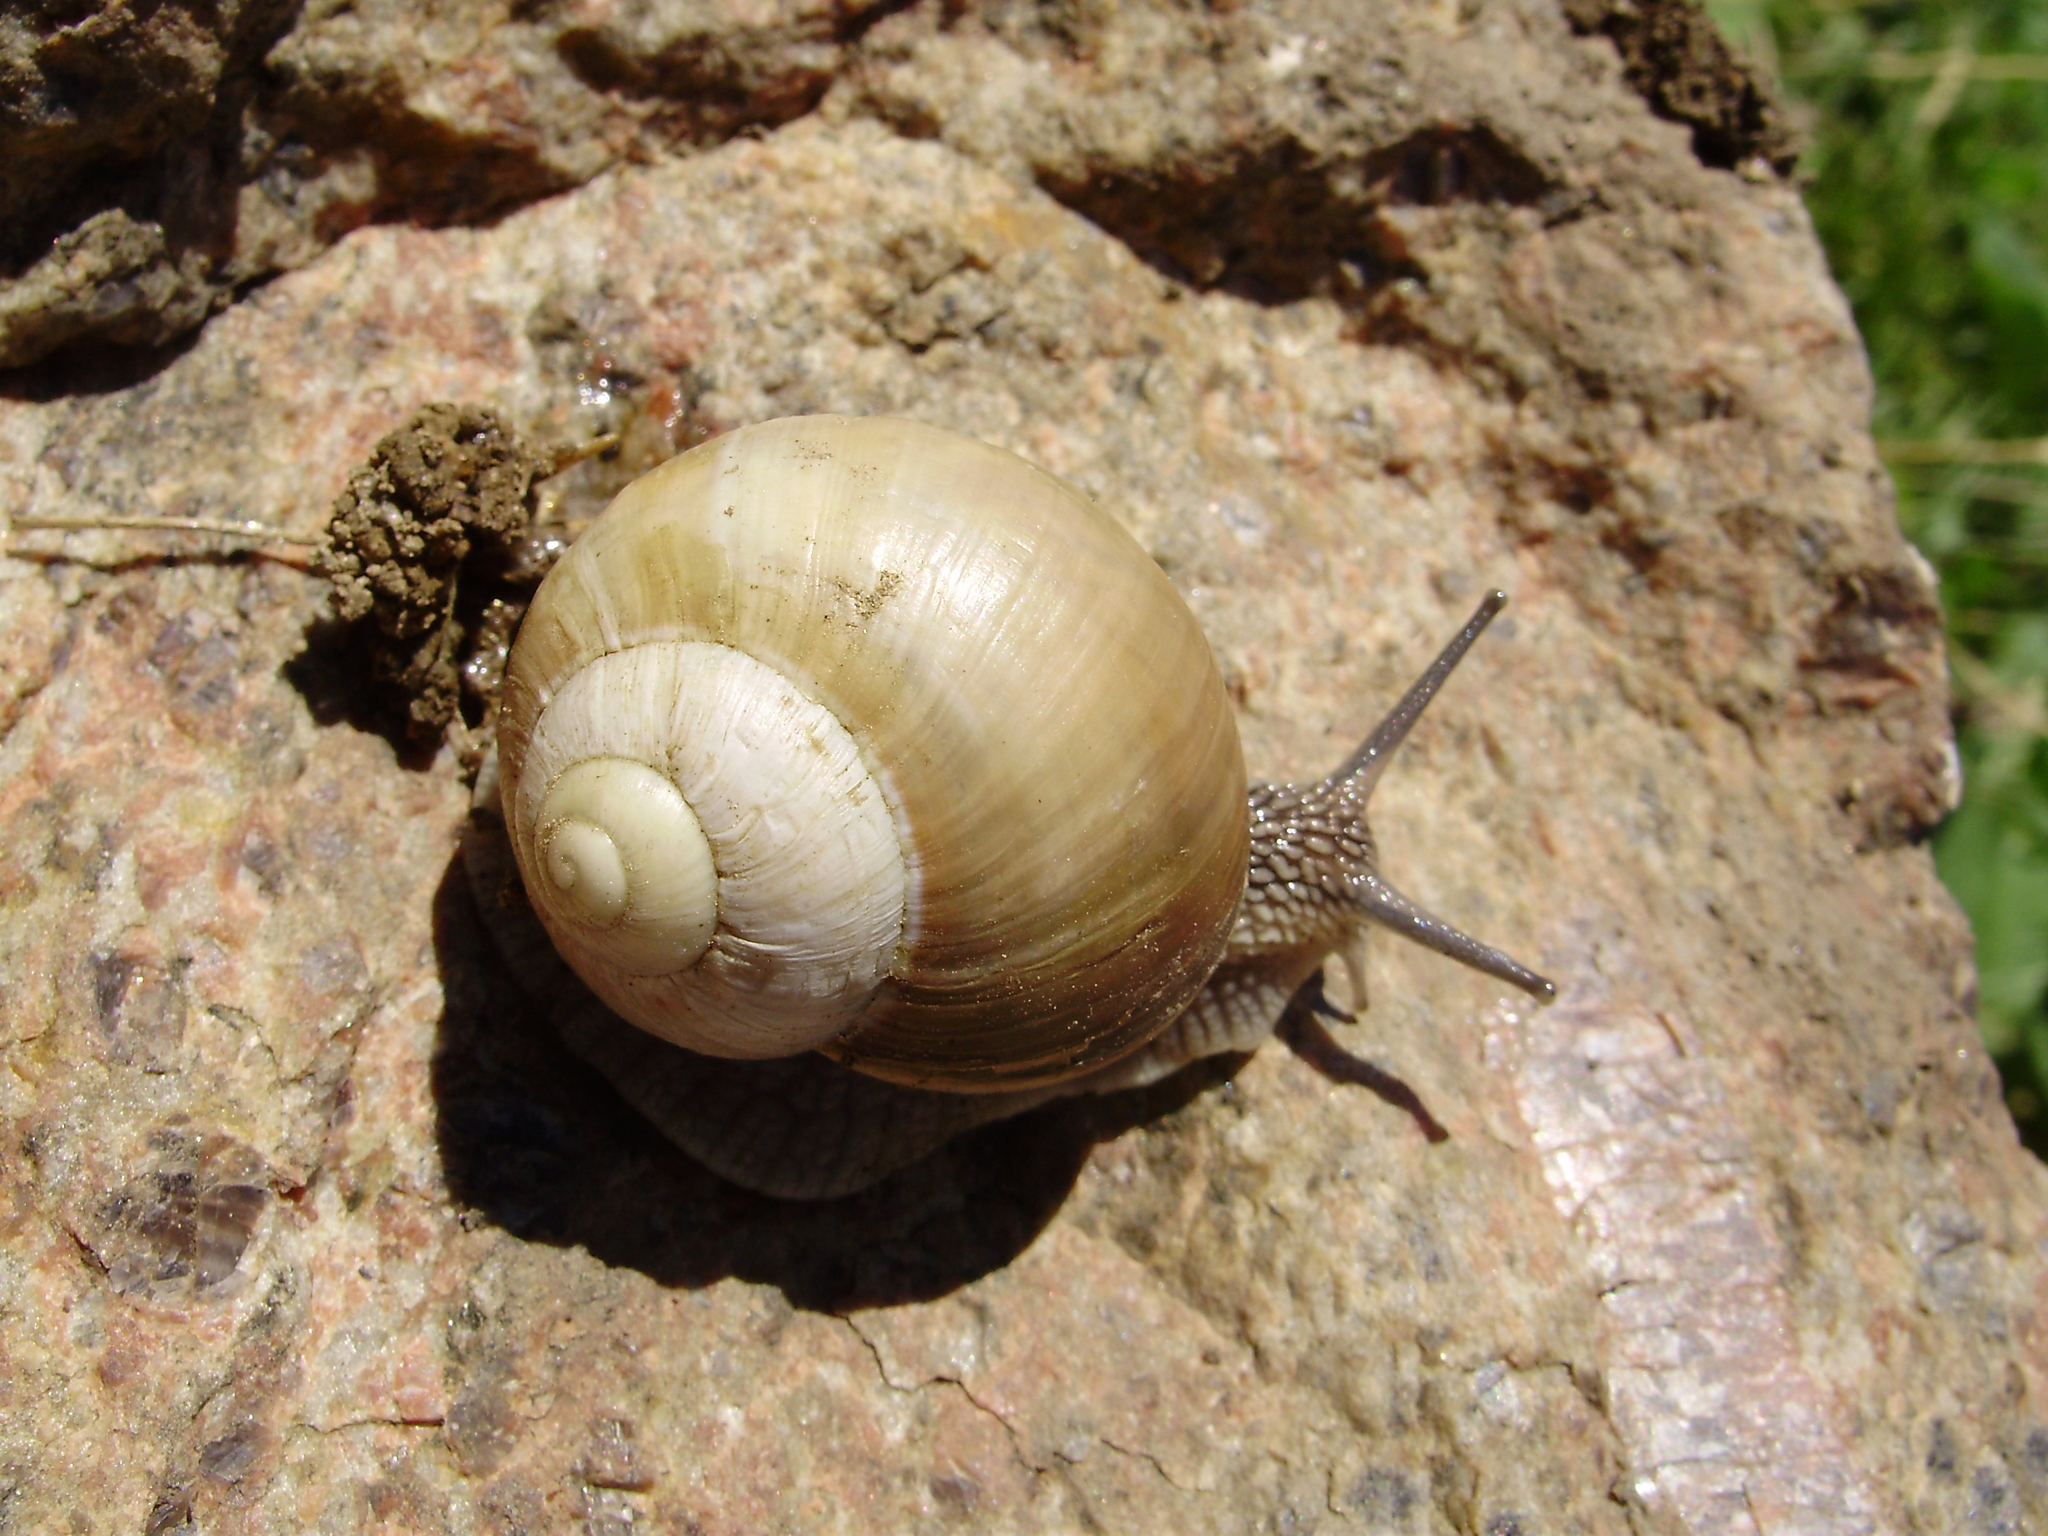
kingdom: Animalia
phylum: Mollusca
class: Gastropoda
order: Stylommatophora
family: Helicidae
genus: Helix
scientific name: Helix lutescens
